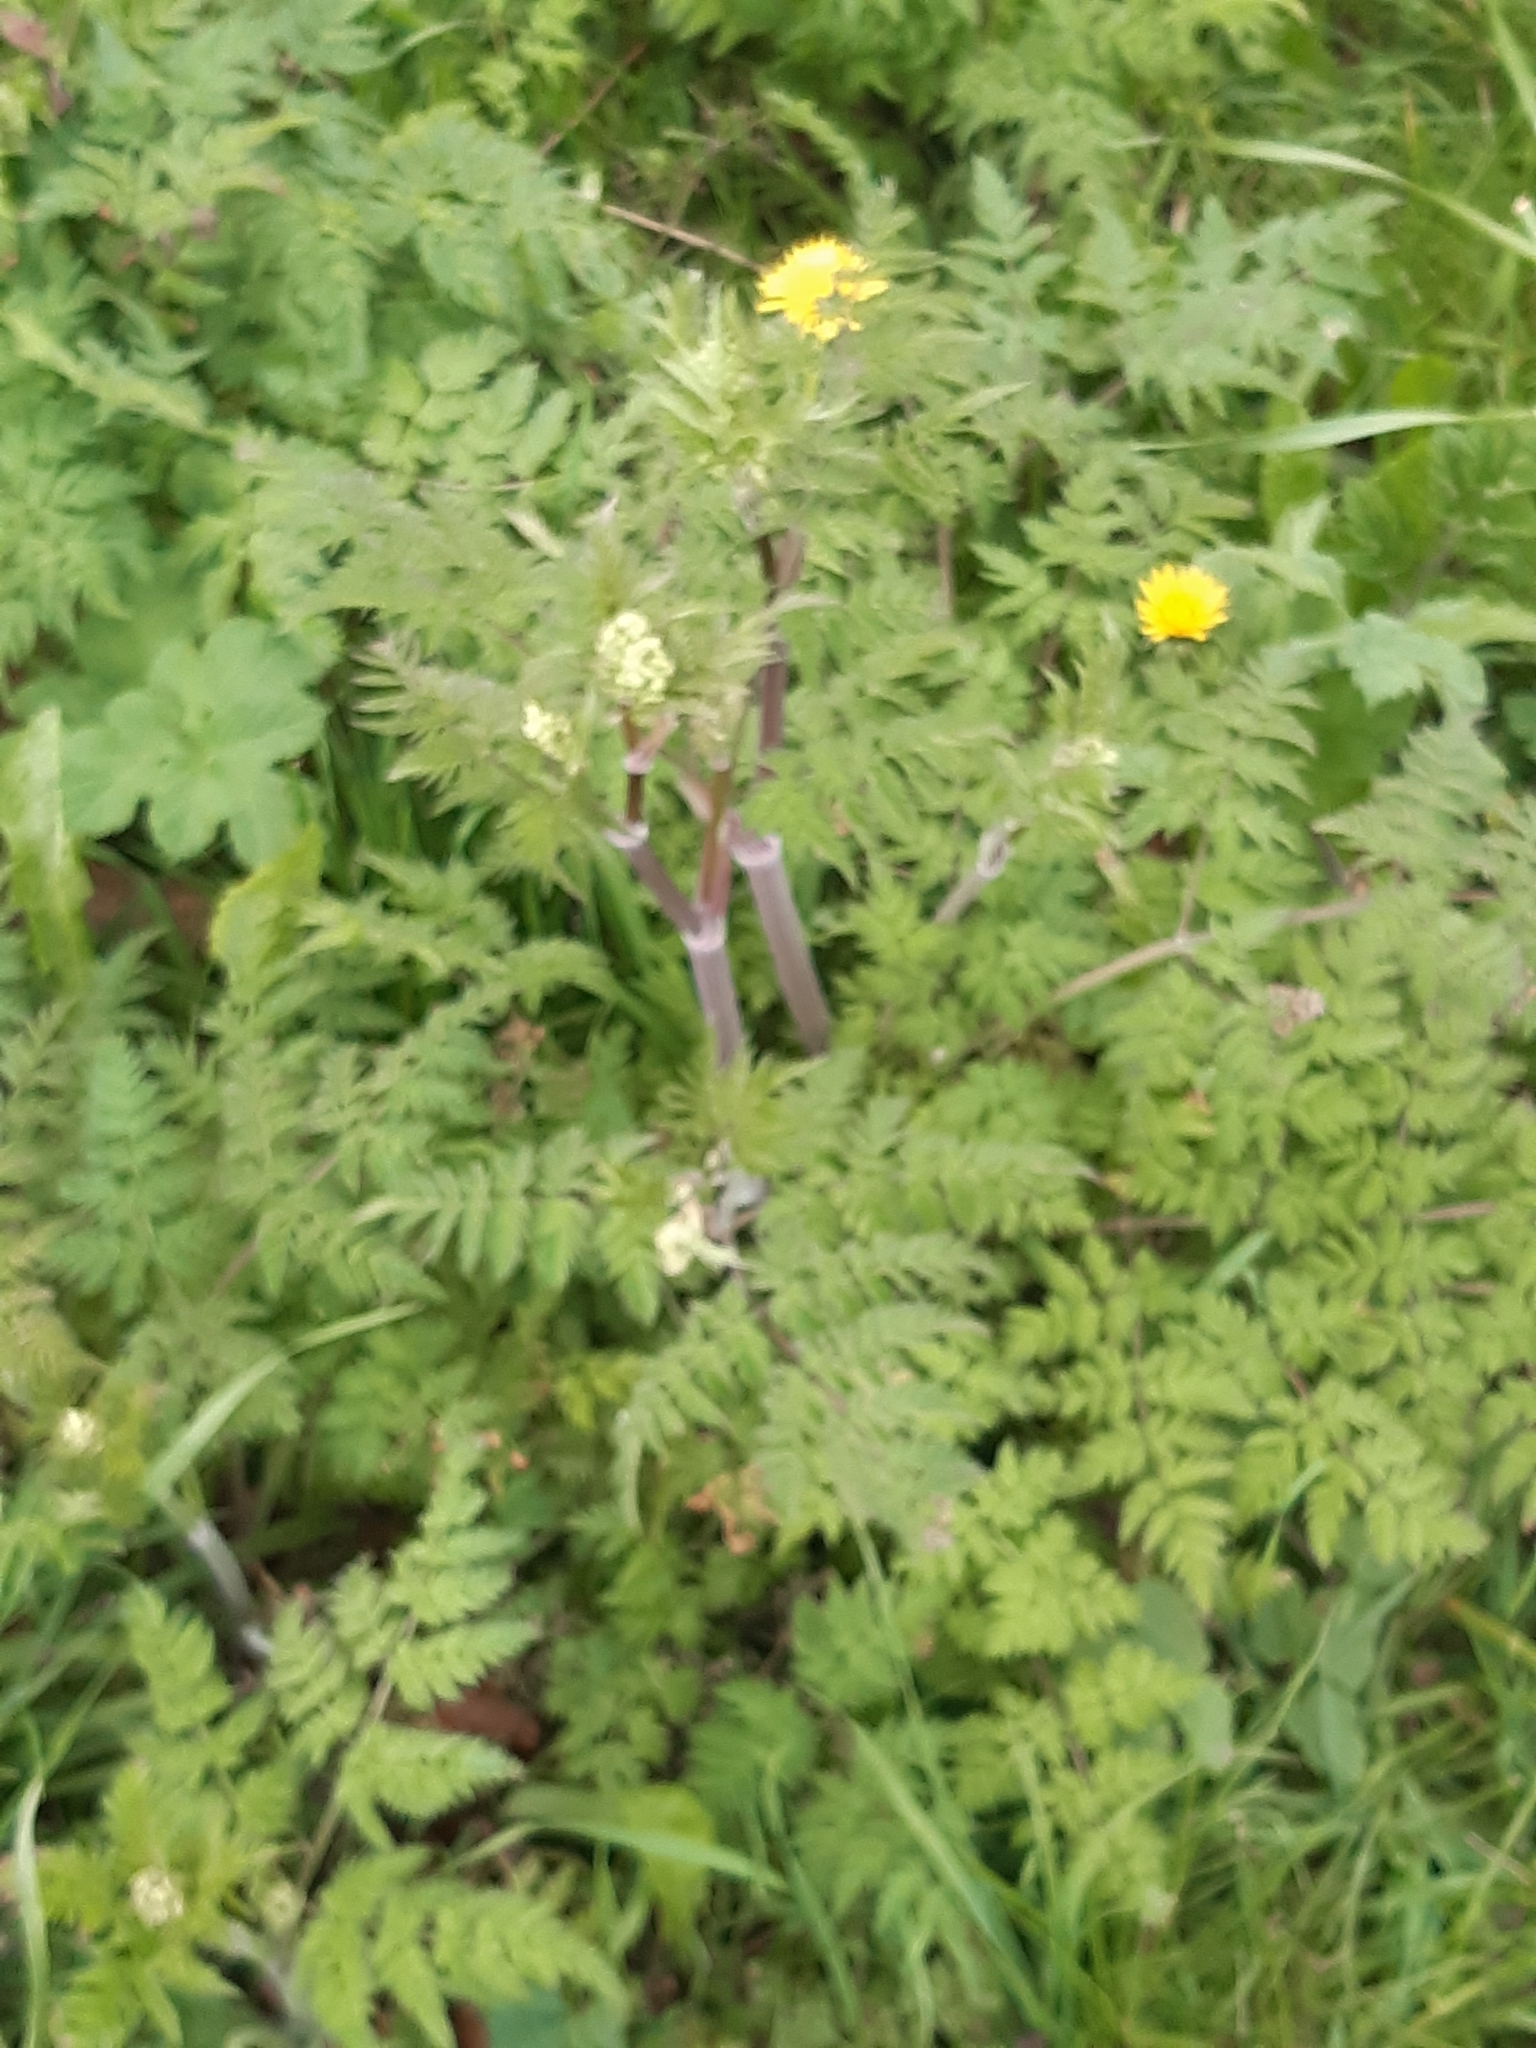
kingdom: Plantae
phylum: Tracheophyta
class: Magnoliopsida
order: Apiales
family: Apiaceae
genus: Anthriscus
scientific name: Anthriscus sylvestris
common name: Cow parsley
